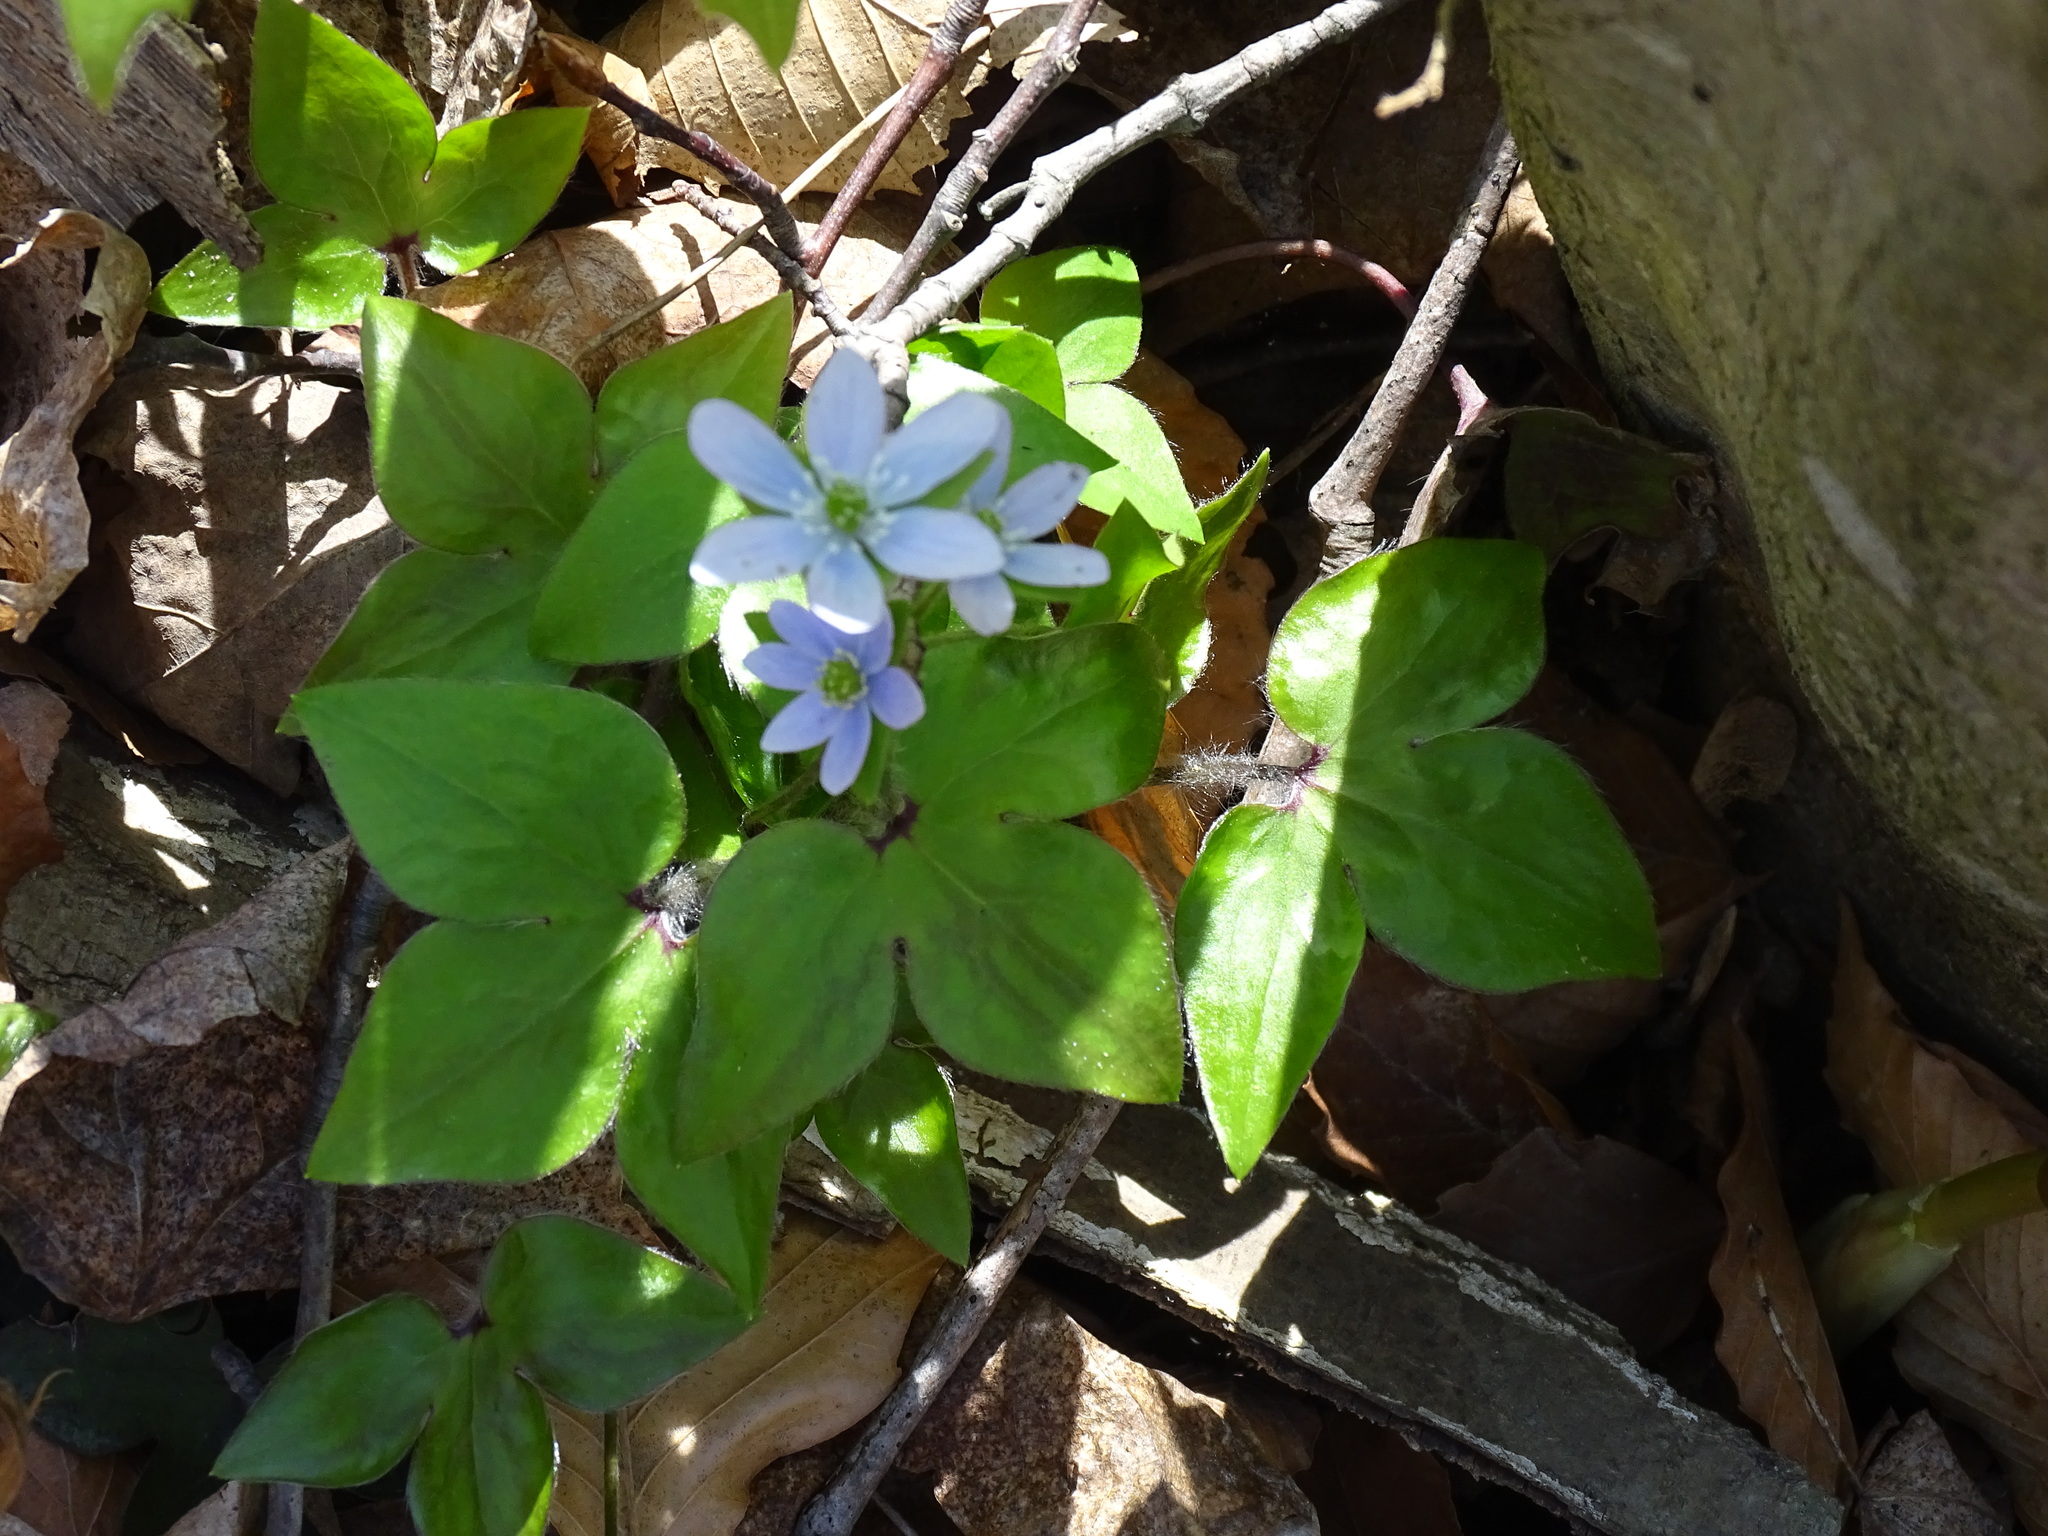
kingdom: Plantae
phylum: Tracheophyta
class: Magnoliopsida
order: Ranunculales
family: Ranunculaceae
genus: Hepatica
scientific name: Hepatica acutiloba
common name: Sharp-lobed hepatica
